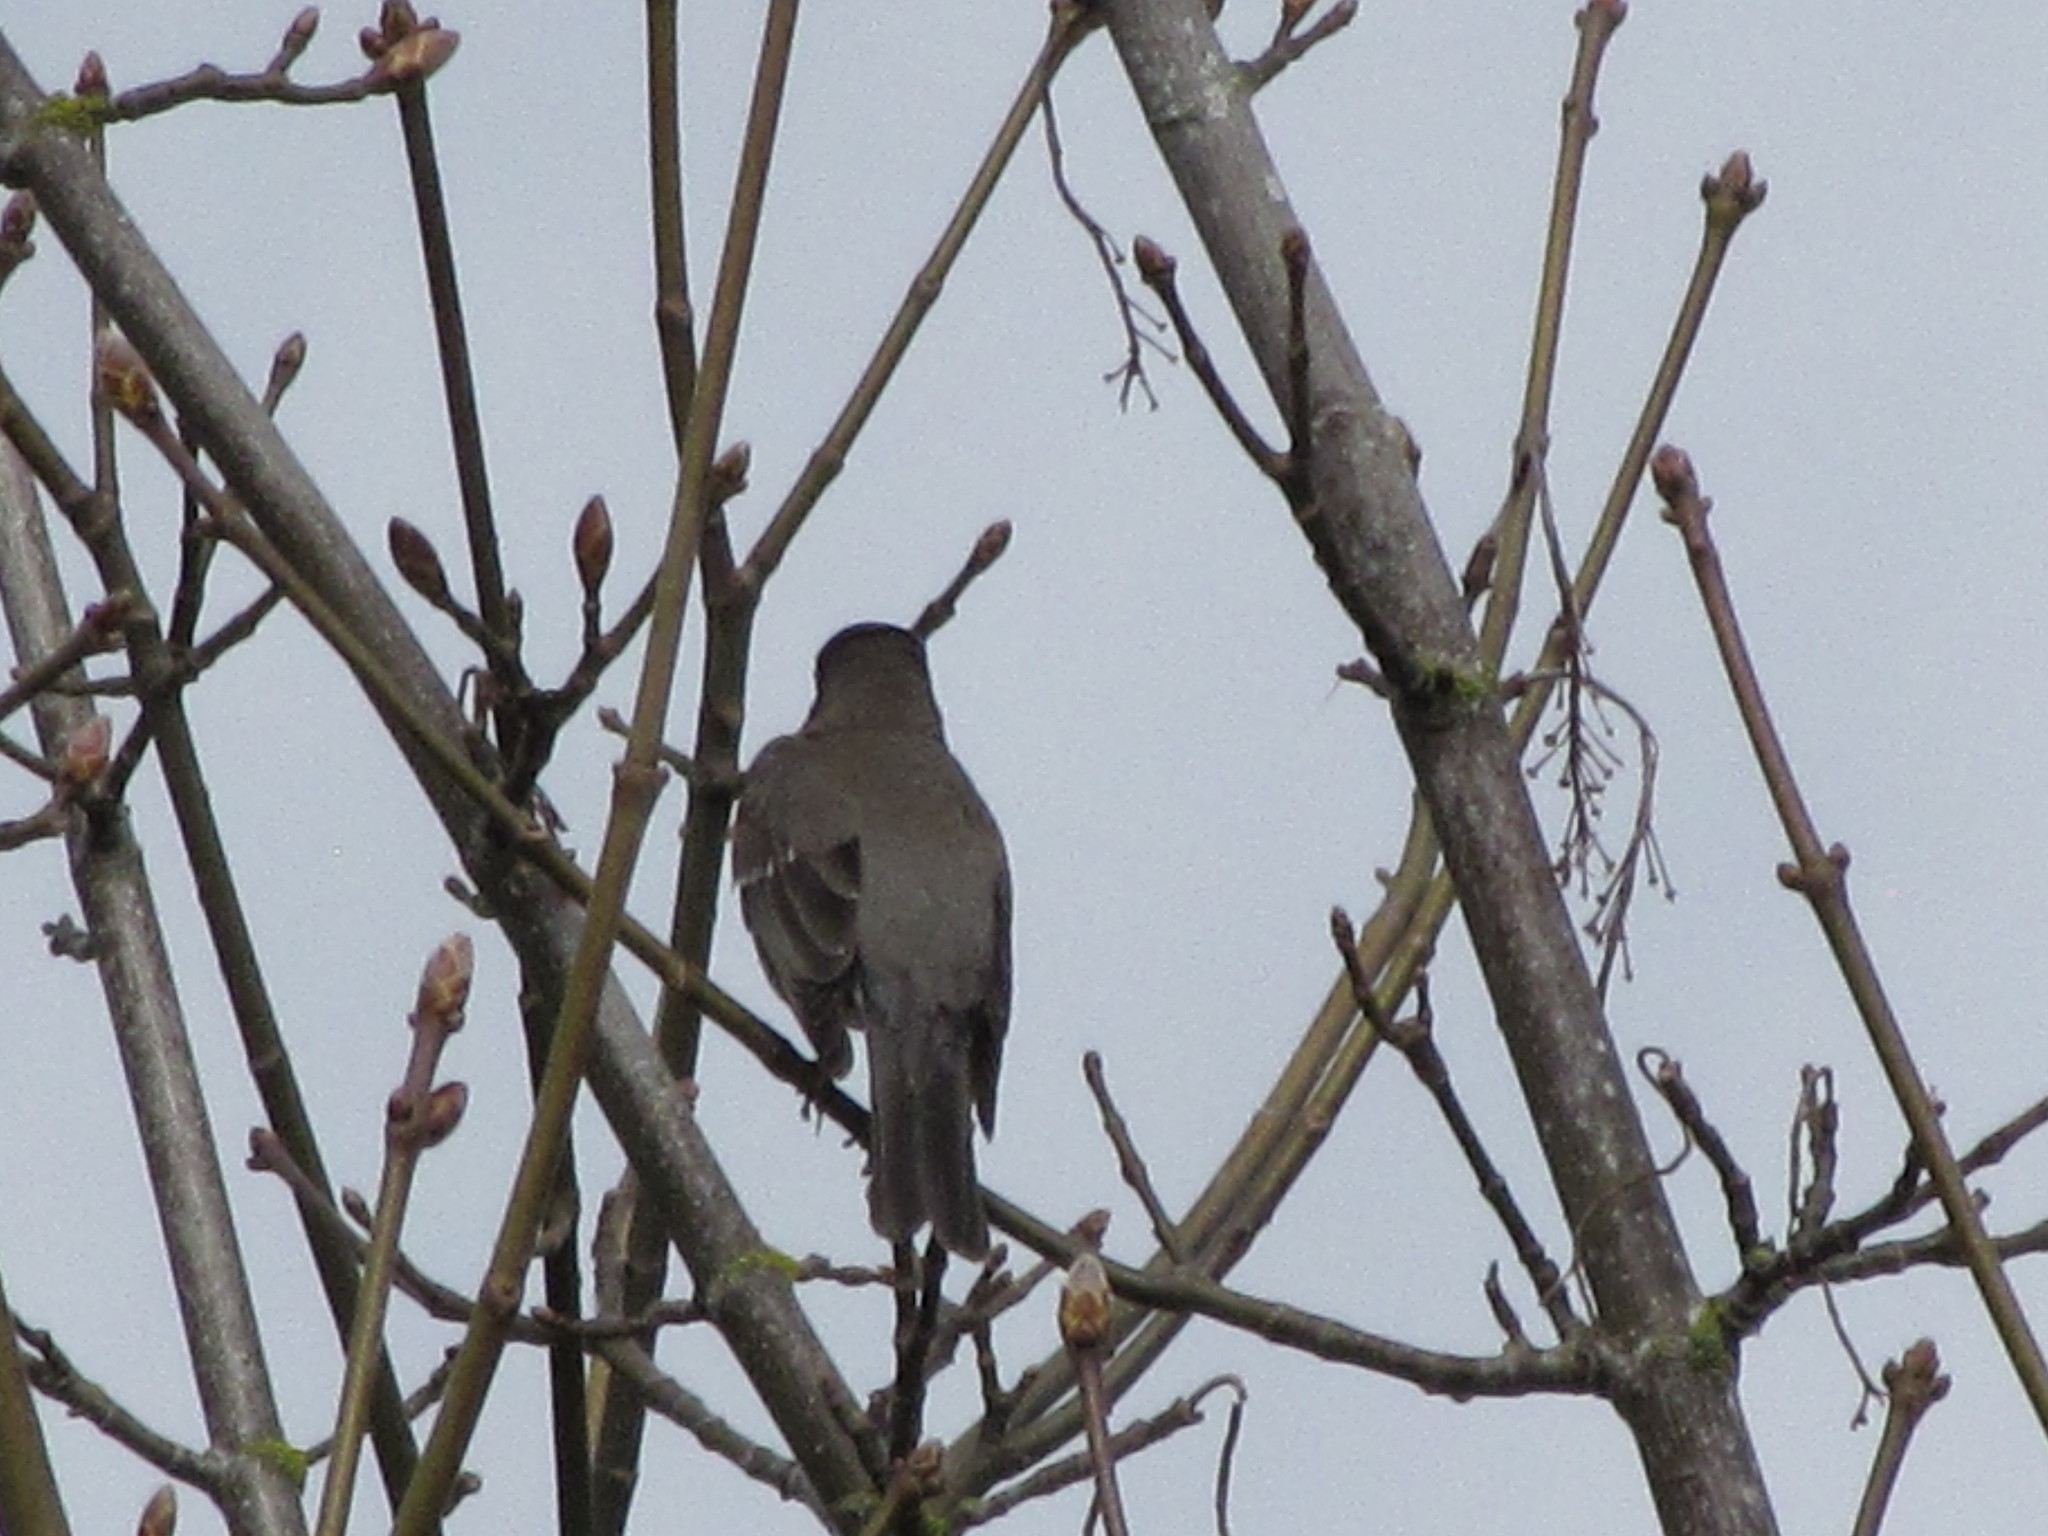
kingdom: Animalia
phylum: Chordata
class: Aves
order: Passeriformes
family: Turdidae
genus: Turdus
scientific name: Turdus migratorius
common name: American robin
